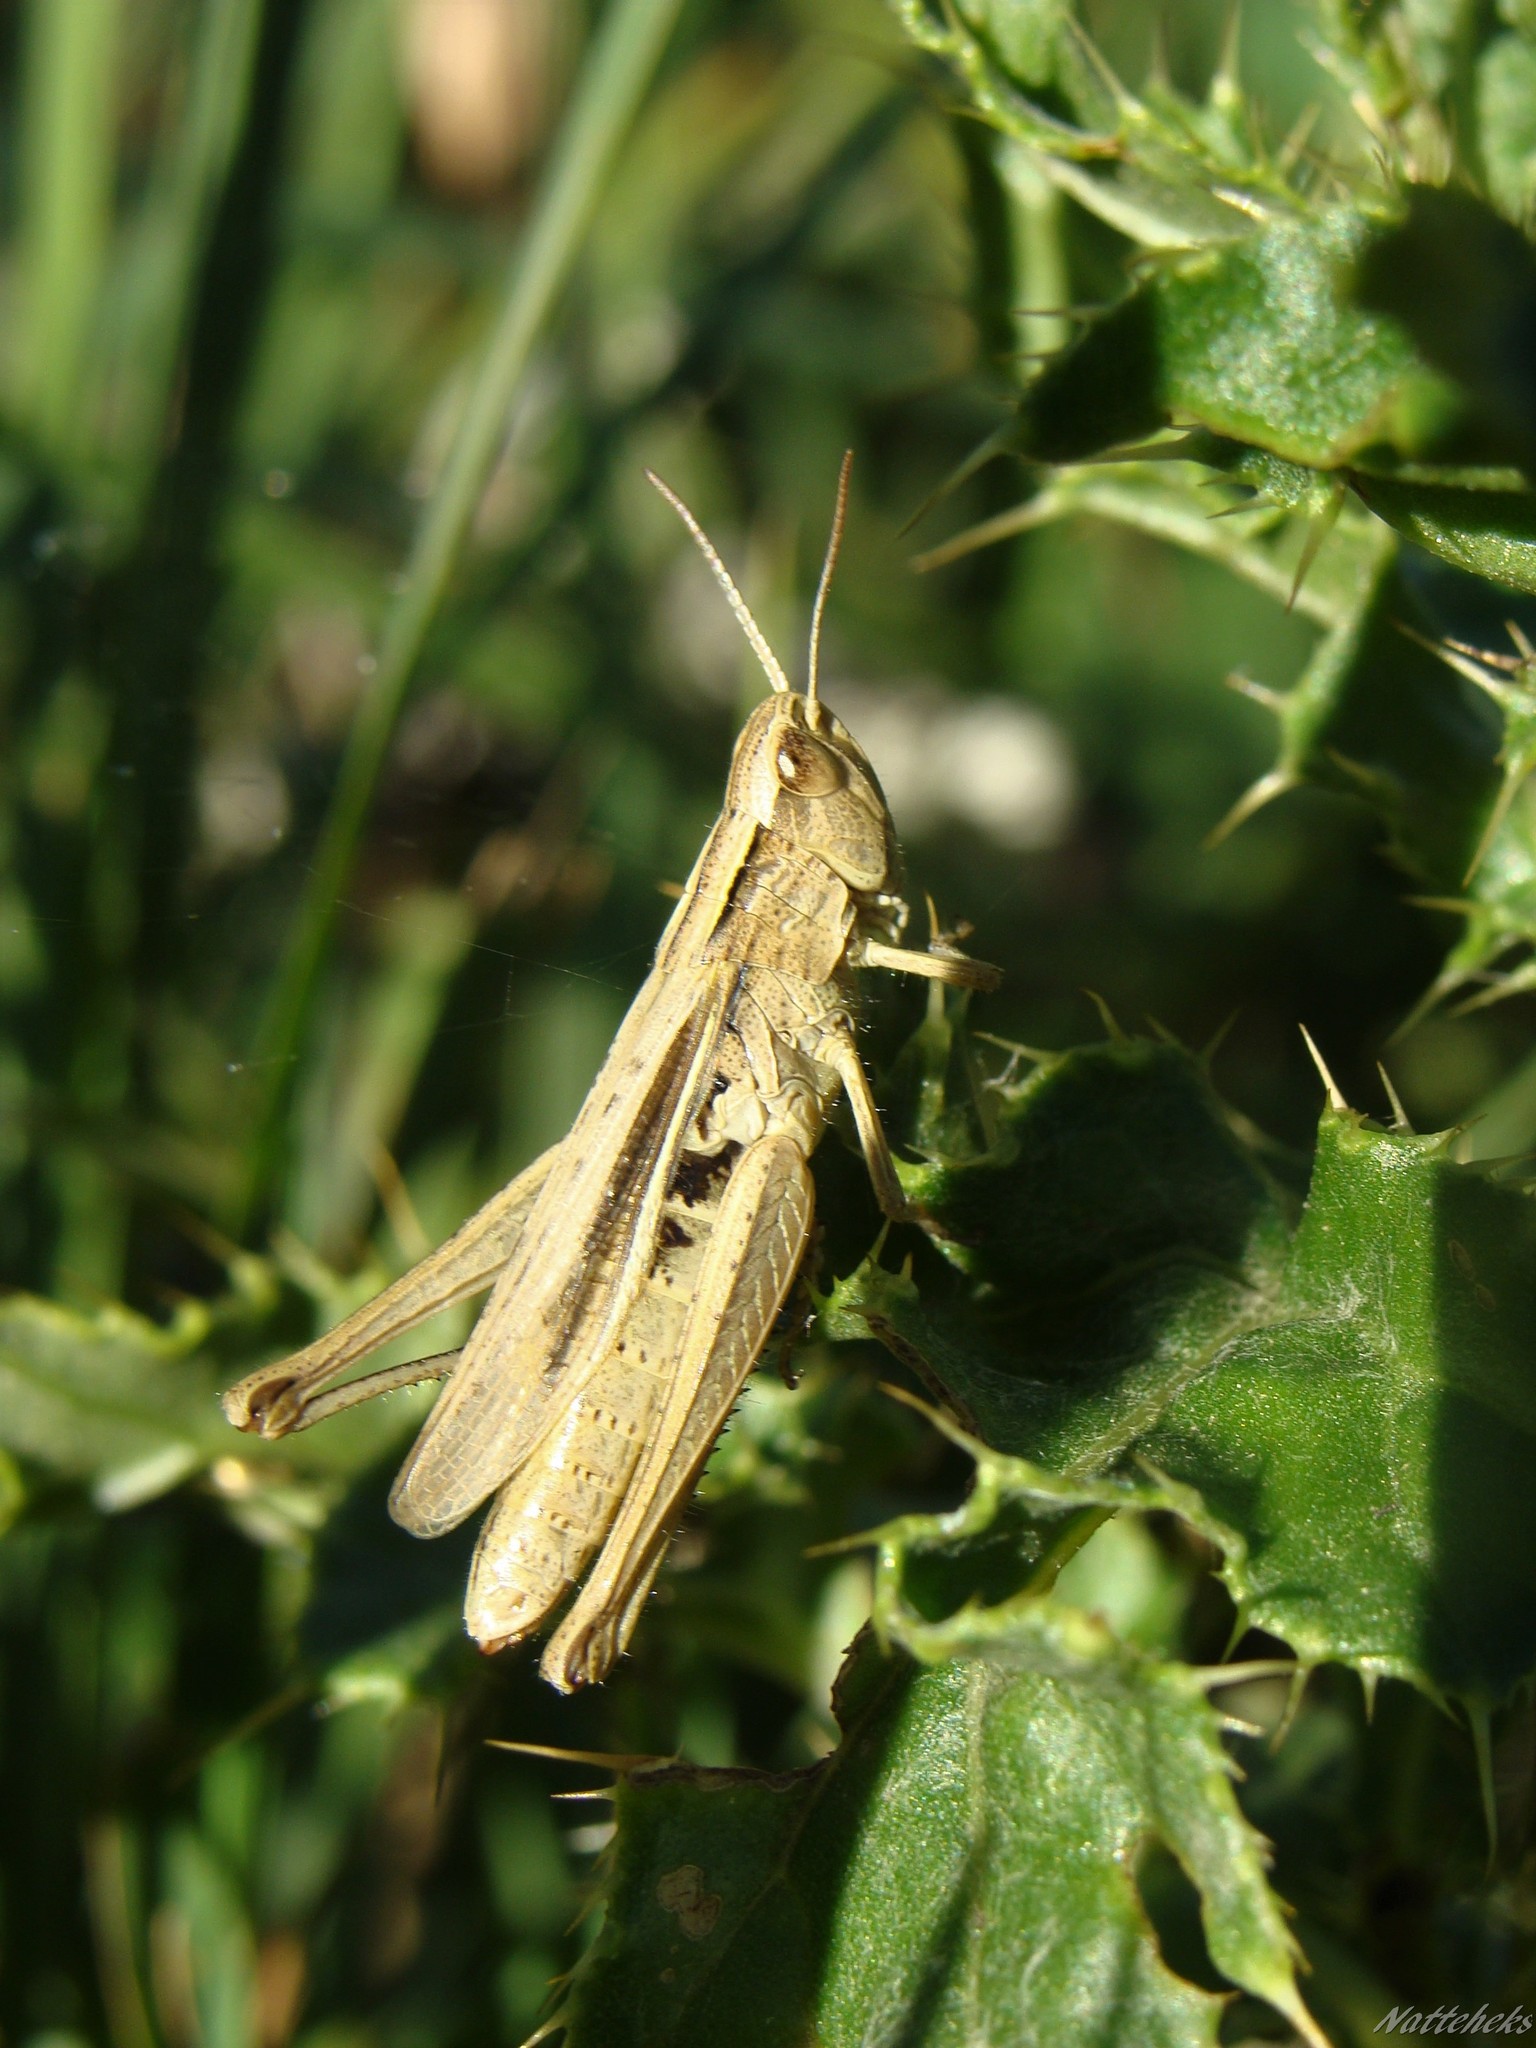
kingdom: Animalia
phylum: Arthropoda
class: Insecta
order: Orthoptera
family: Acrididae
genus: Chorthippus
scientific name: Chorthippus albomarginatus
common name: Lesser marsh grasshopper
